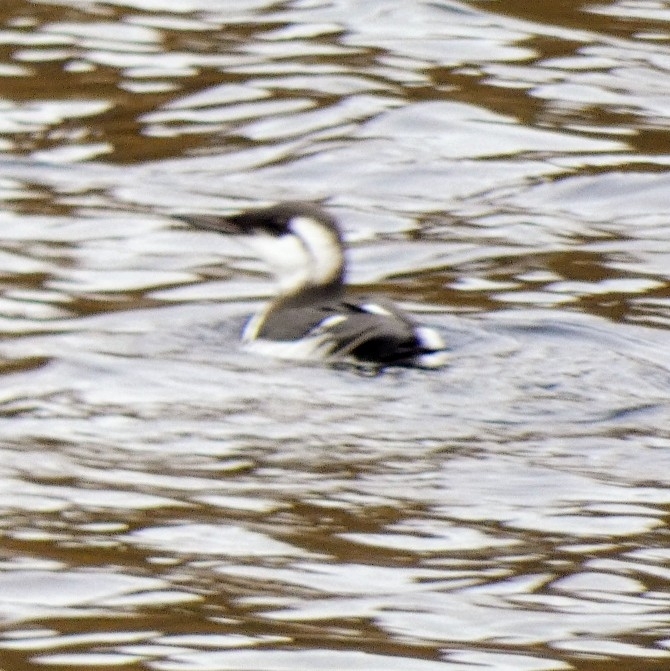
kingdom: Animalia
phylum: Chordata
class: Aves
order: Charadriiformes
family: Alcidae
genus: Uria
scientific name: Uria aalge
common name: Common murre
